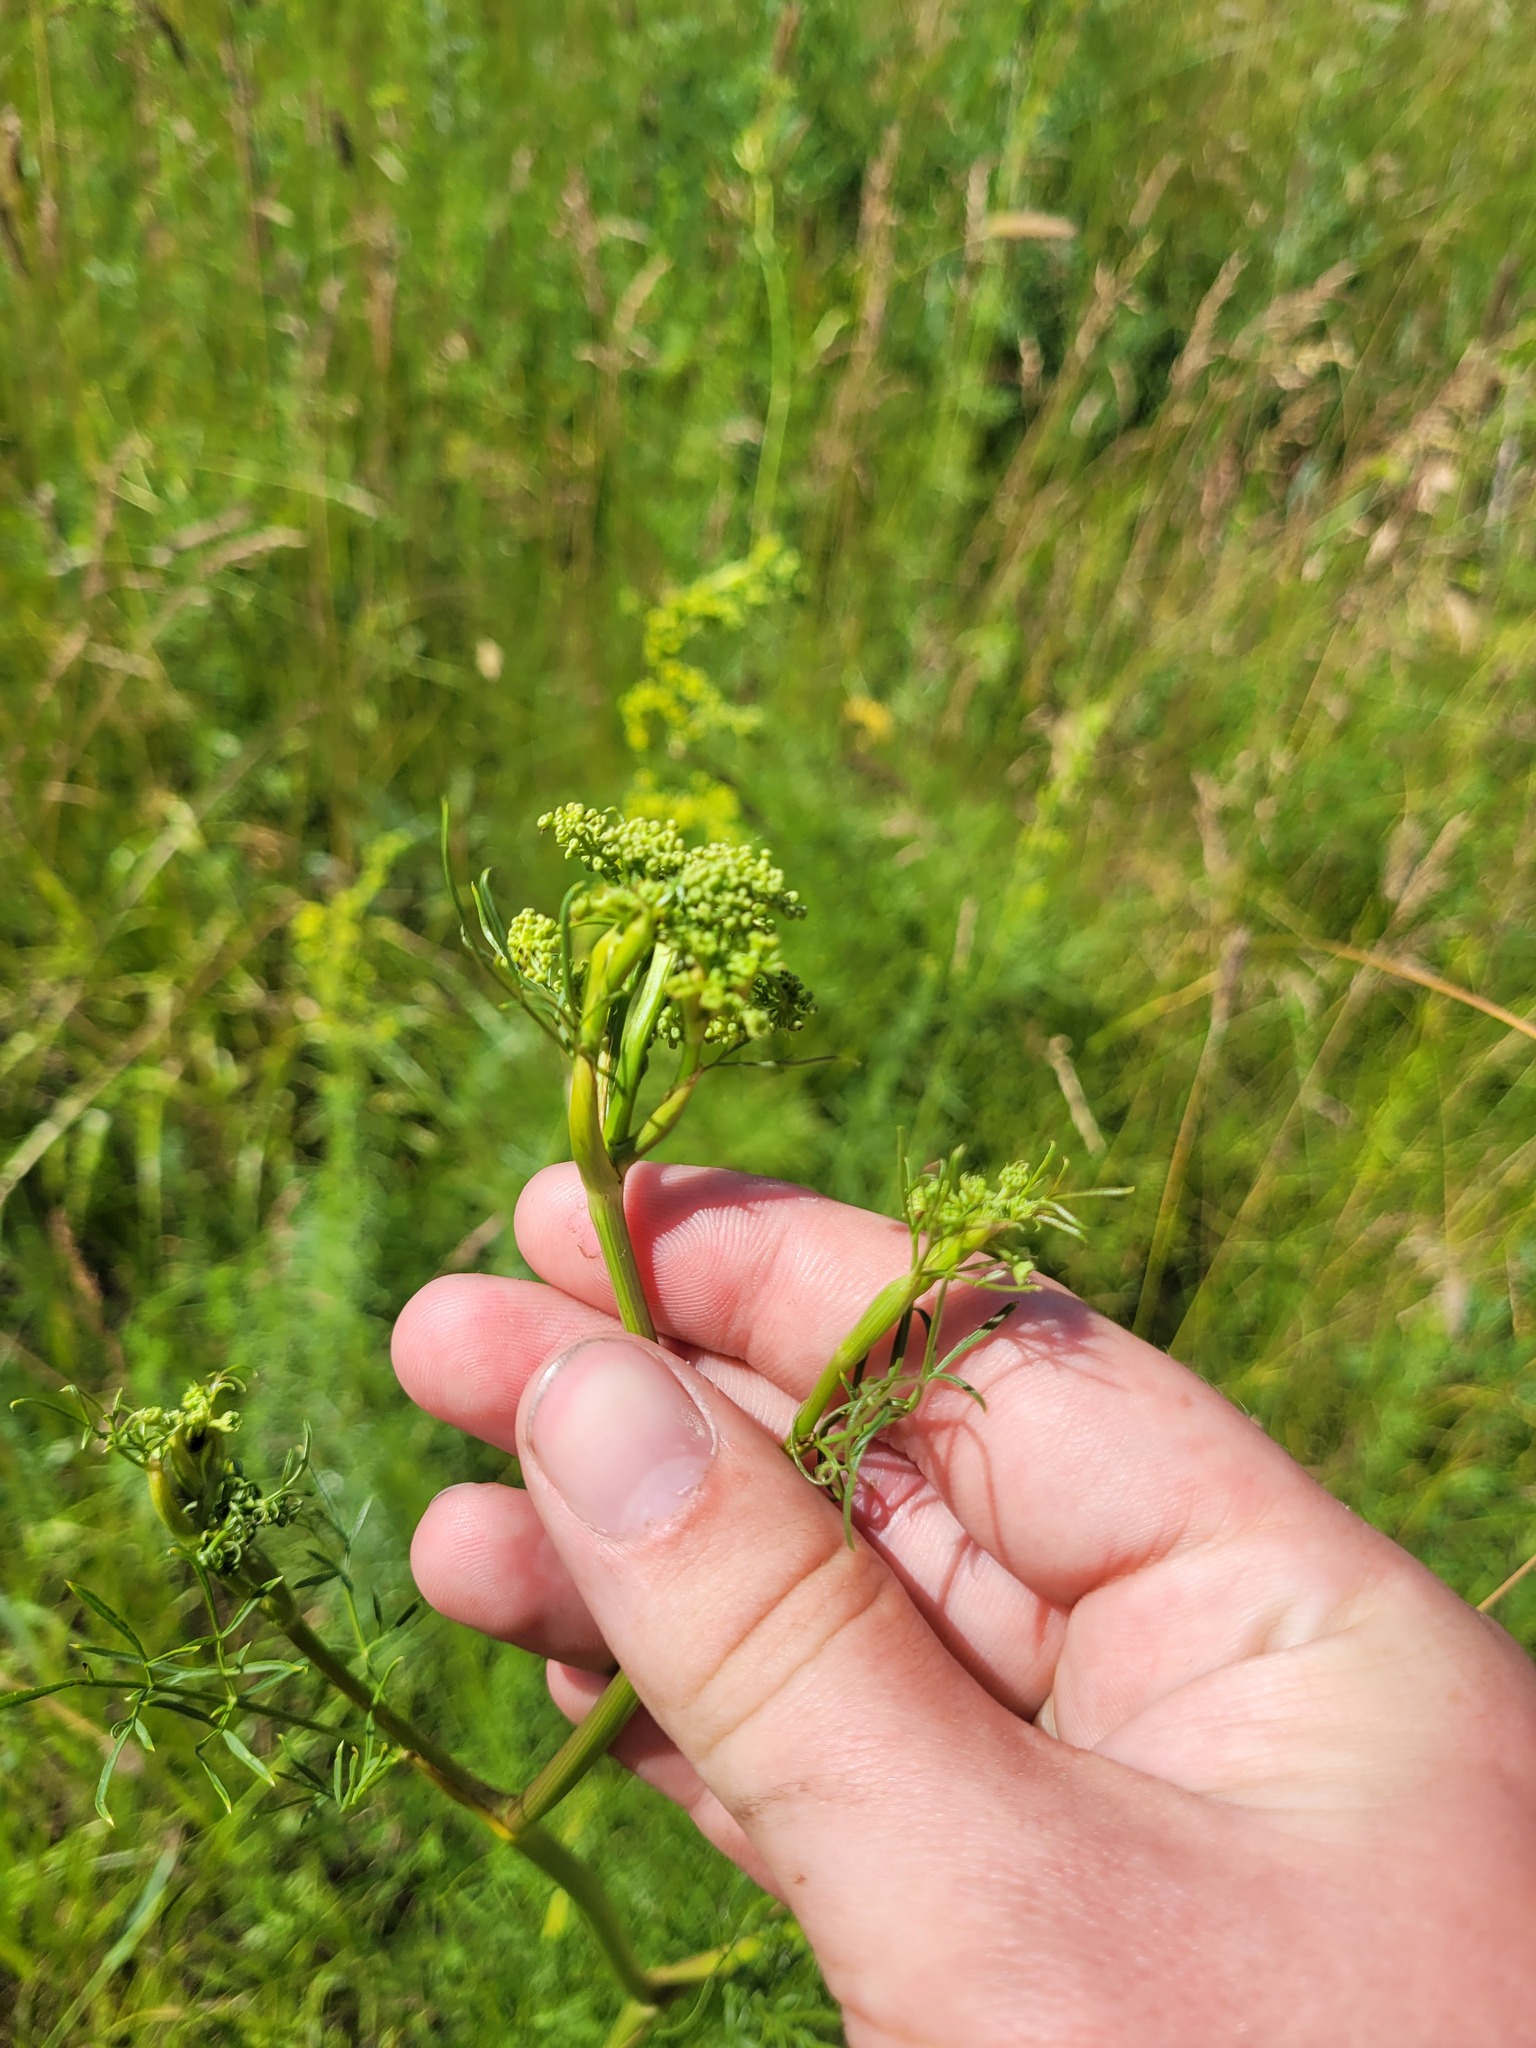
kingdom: Plantae
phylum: Tracheophyta
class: Magnoliopsida
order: Apiales
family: Apiaceae
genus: Silaum
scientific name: Silaum silaus
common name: Pepper-saxifrage
